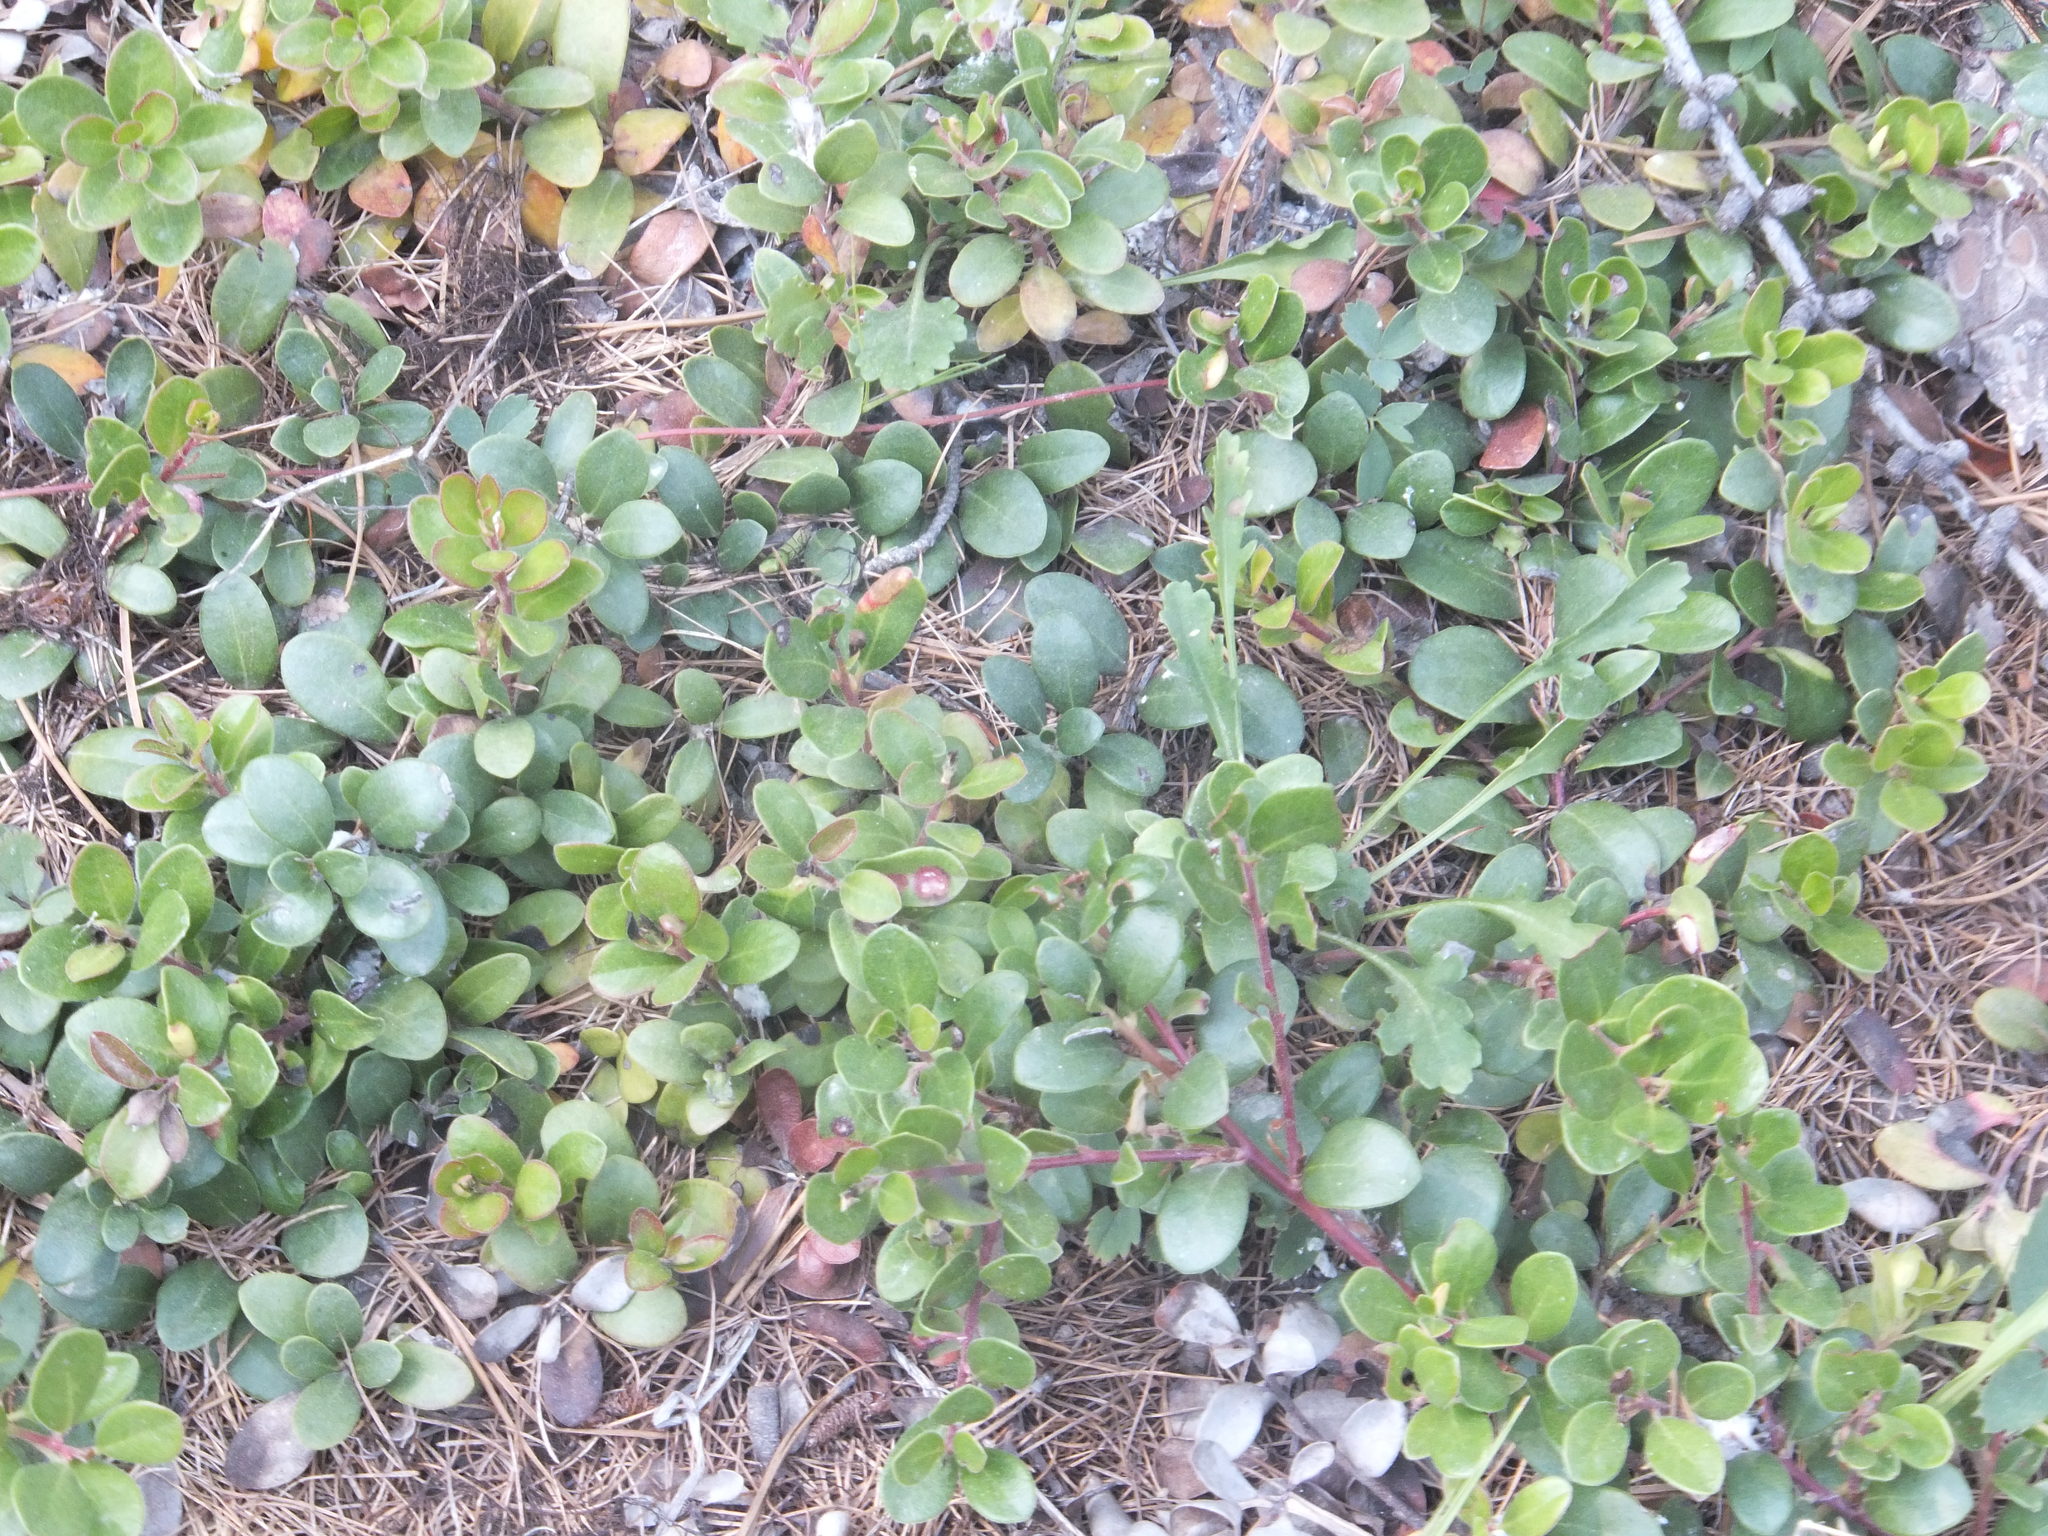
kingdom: Plantae
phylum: Tracheophyta
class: Magnoliopsida
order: Ericales
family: Ericaceae
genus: Arctostaphylos
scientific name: Arctostaphylos uva-ursi
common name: Bearberry
